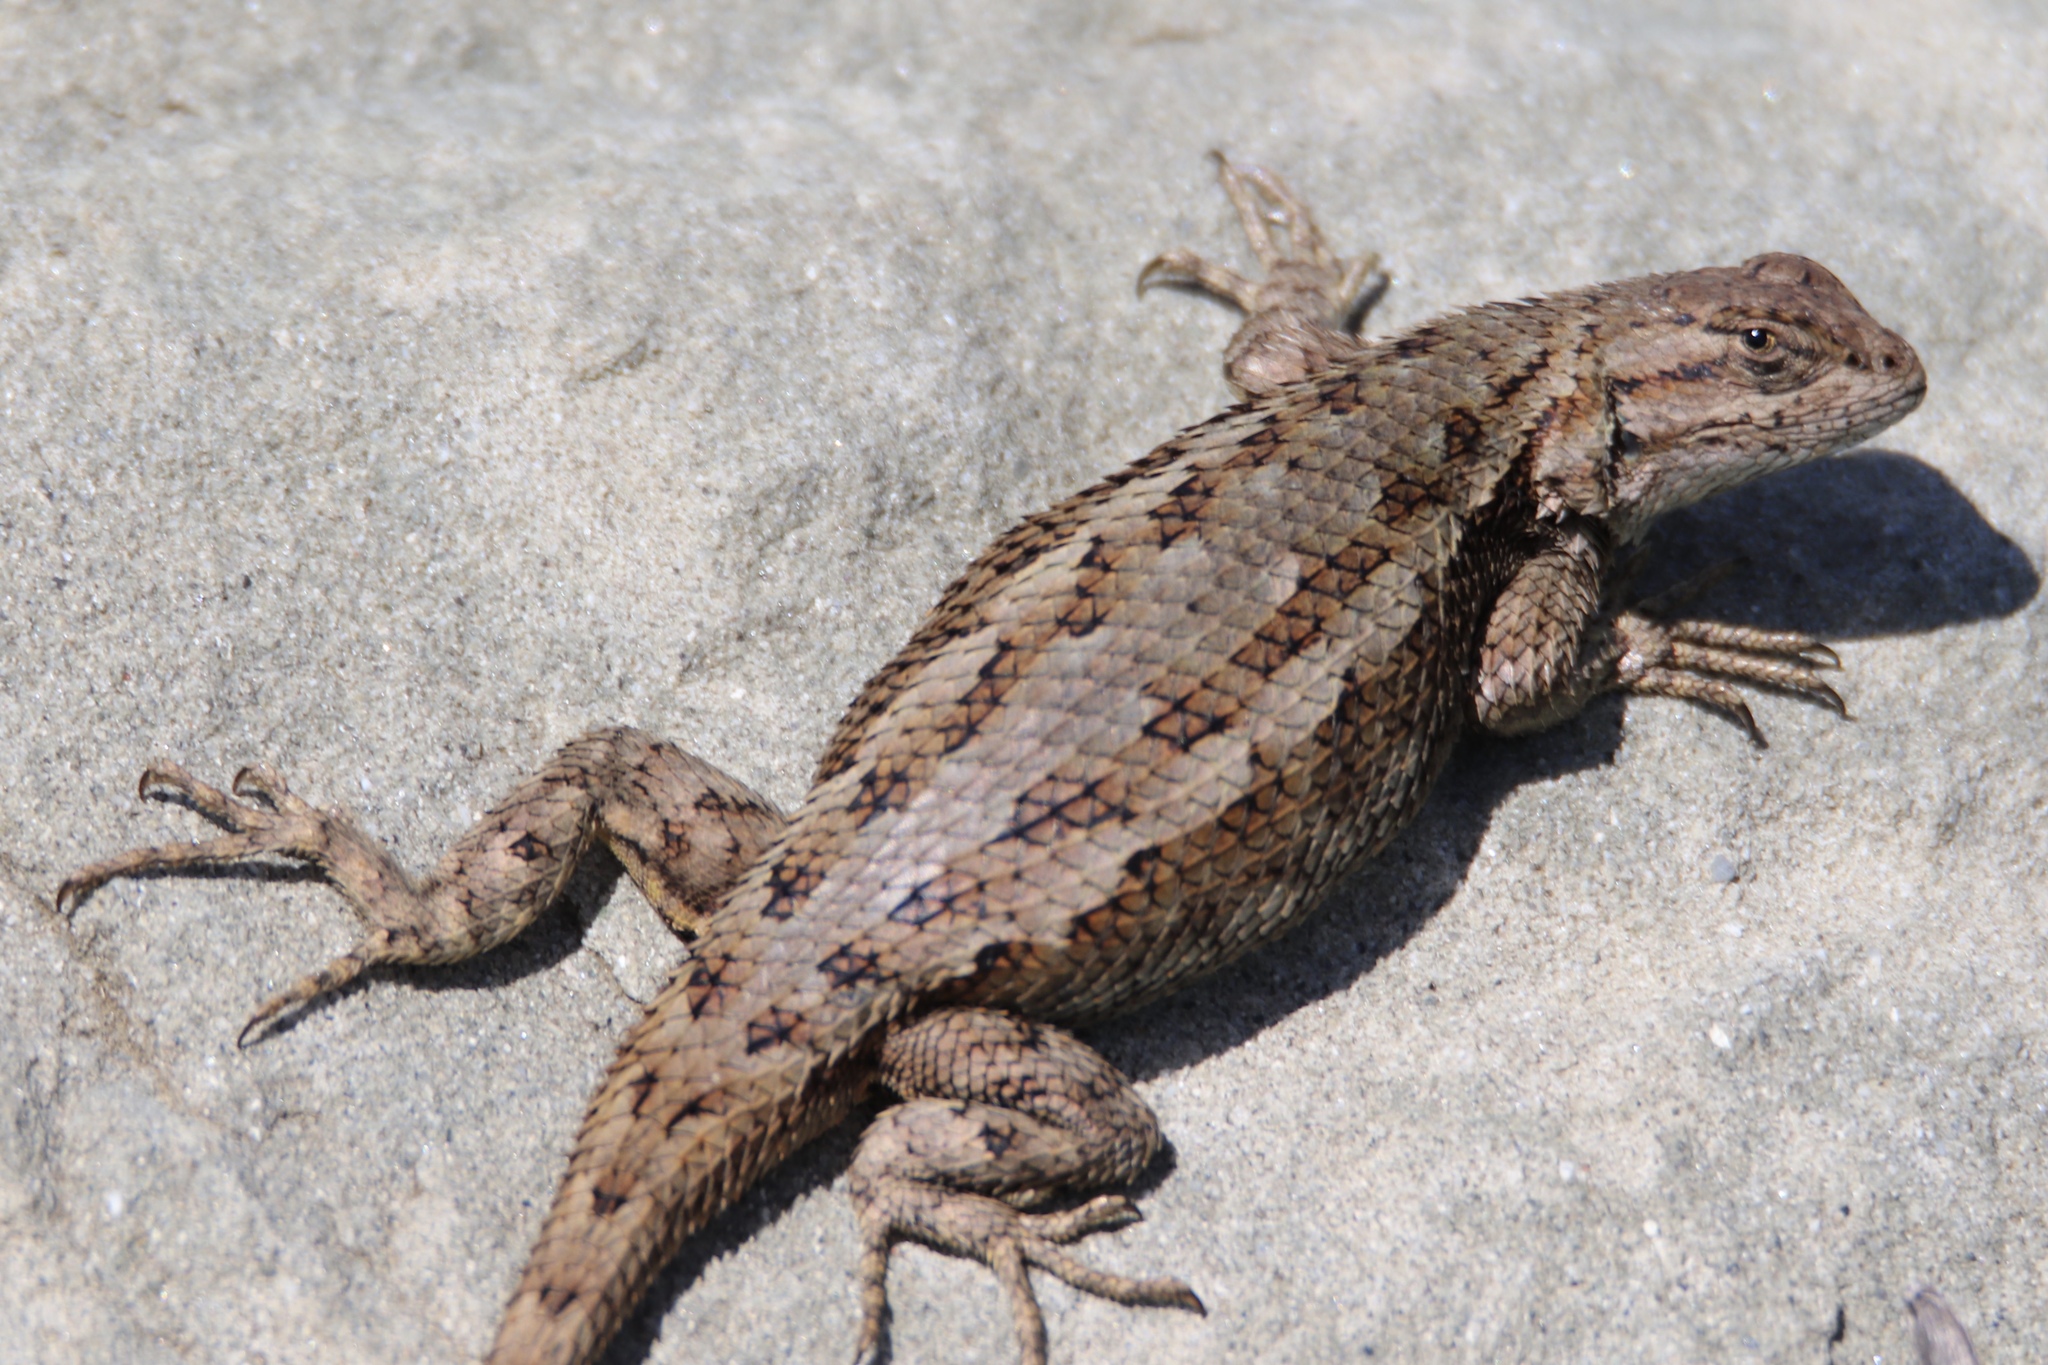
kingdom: Animalia
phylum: Chordata
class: Squamata
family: Phrynosomatidae
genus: Sceloporus
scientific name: Sceloporus occidentalis
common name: Western fence lizard
